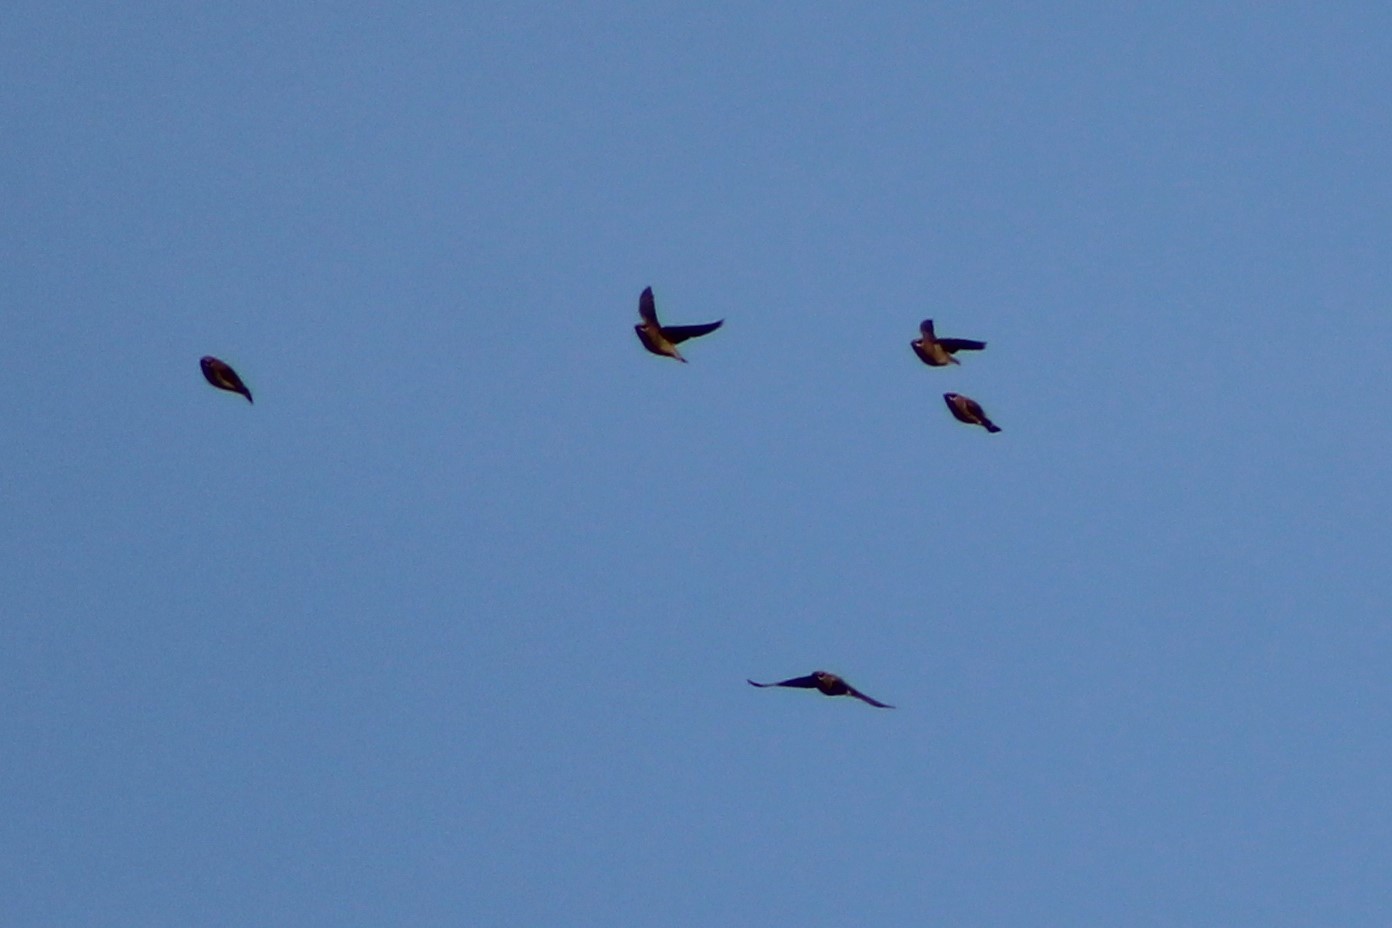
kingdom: Animalia
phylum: Chordata
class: Aves
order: Passeriformes
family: Bombycillidae
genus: Bombycilla
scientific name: Bombycilla cedrorum
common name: Cedar waxwing
